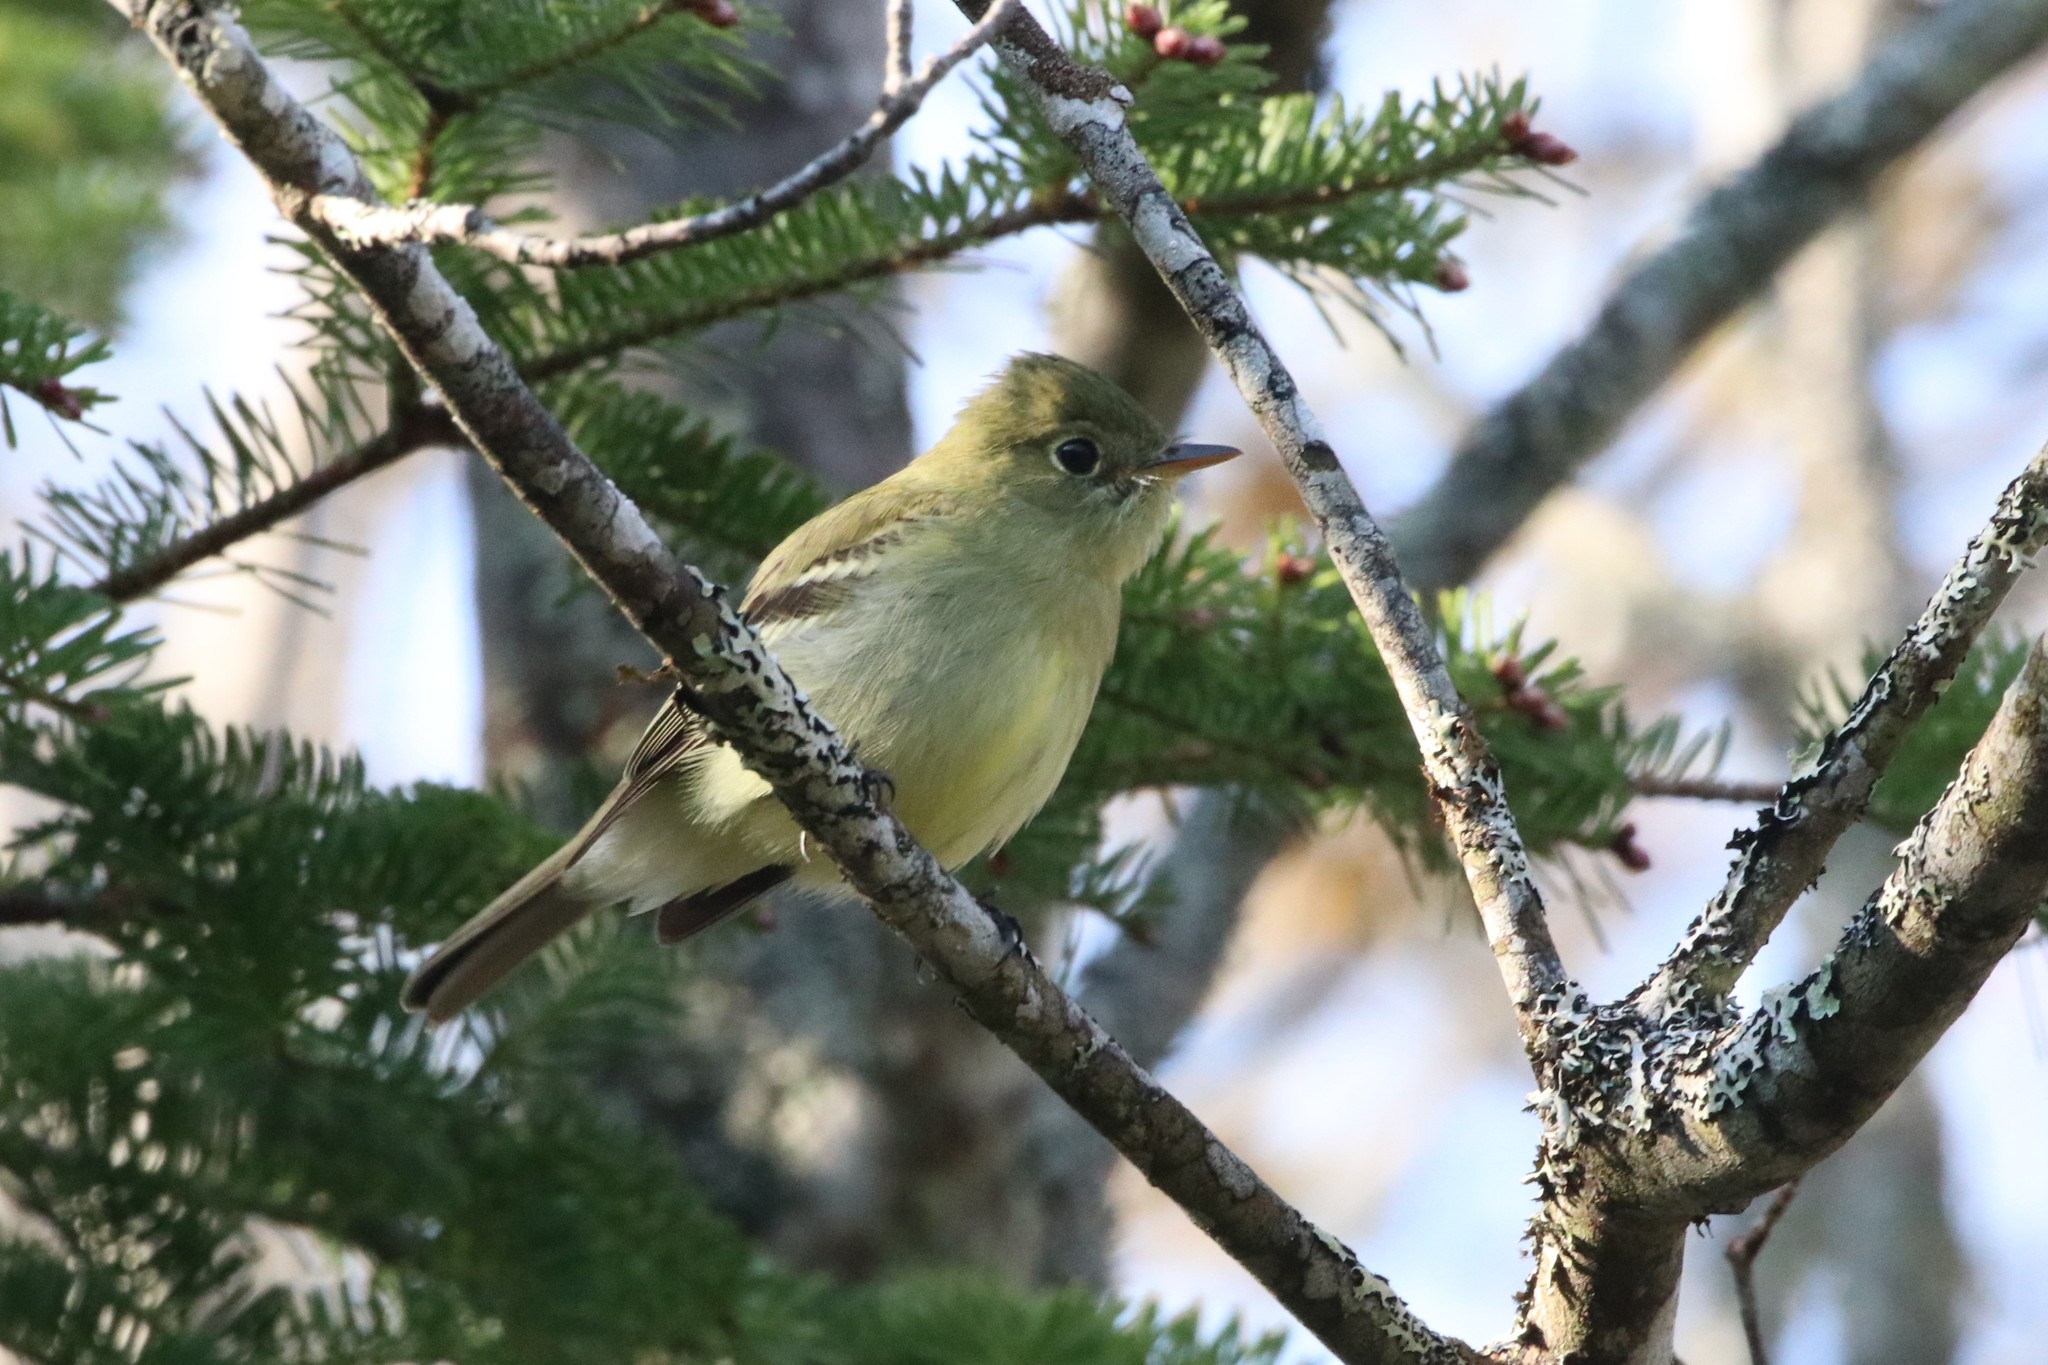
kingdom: Animalia
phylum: Chordata
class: Aves
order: Passeriformes
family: Tyrannidae
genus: Empidonax
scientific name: Empidonax flaviventris
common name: Yellow-bellied flycatcher
